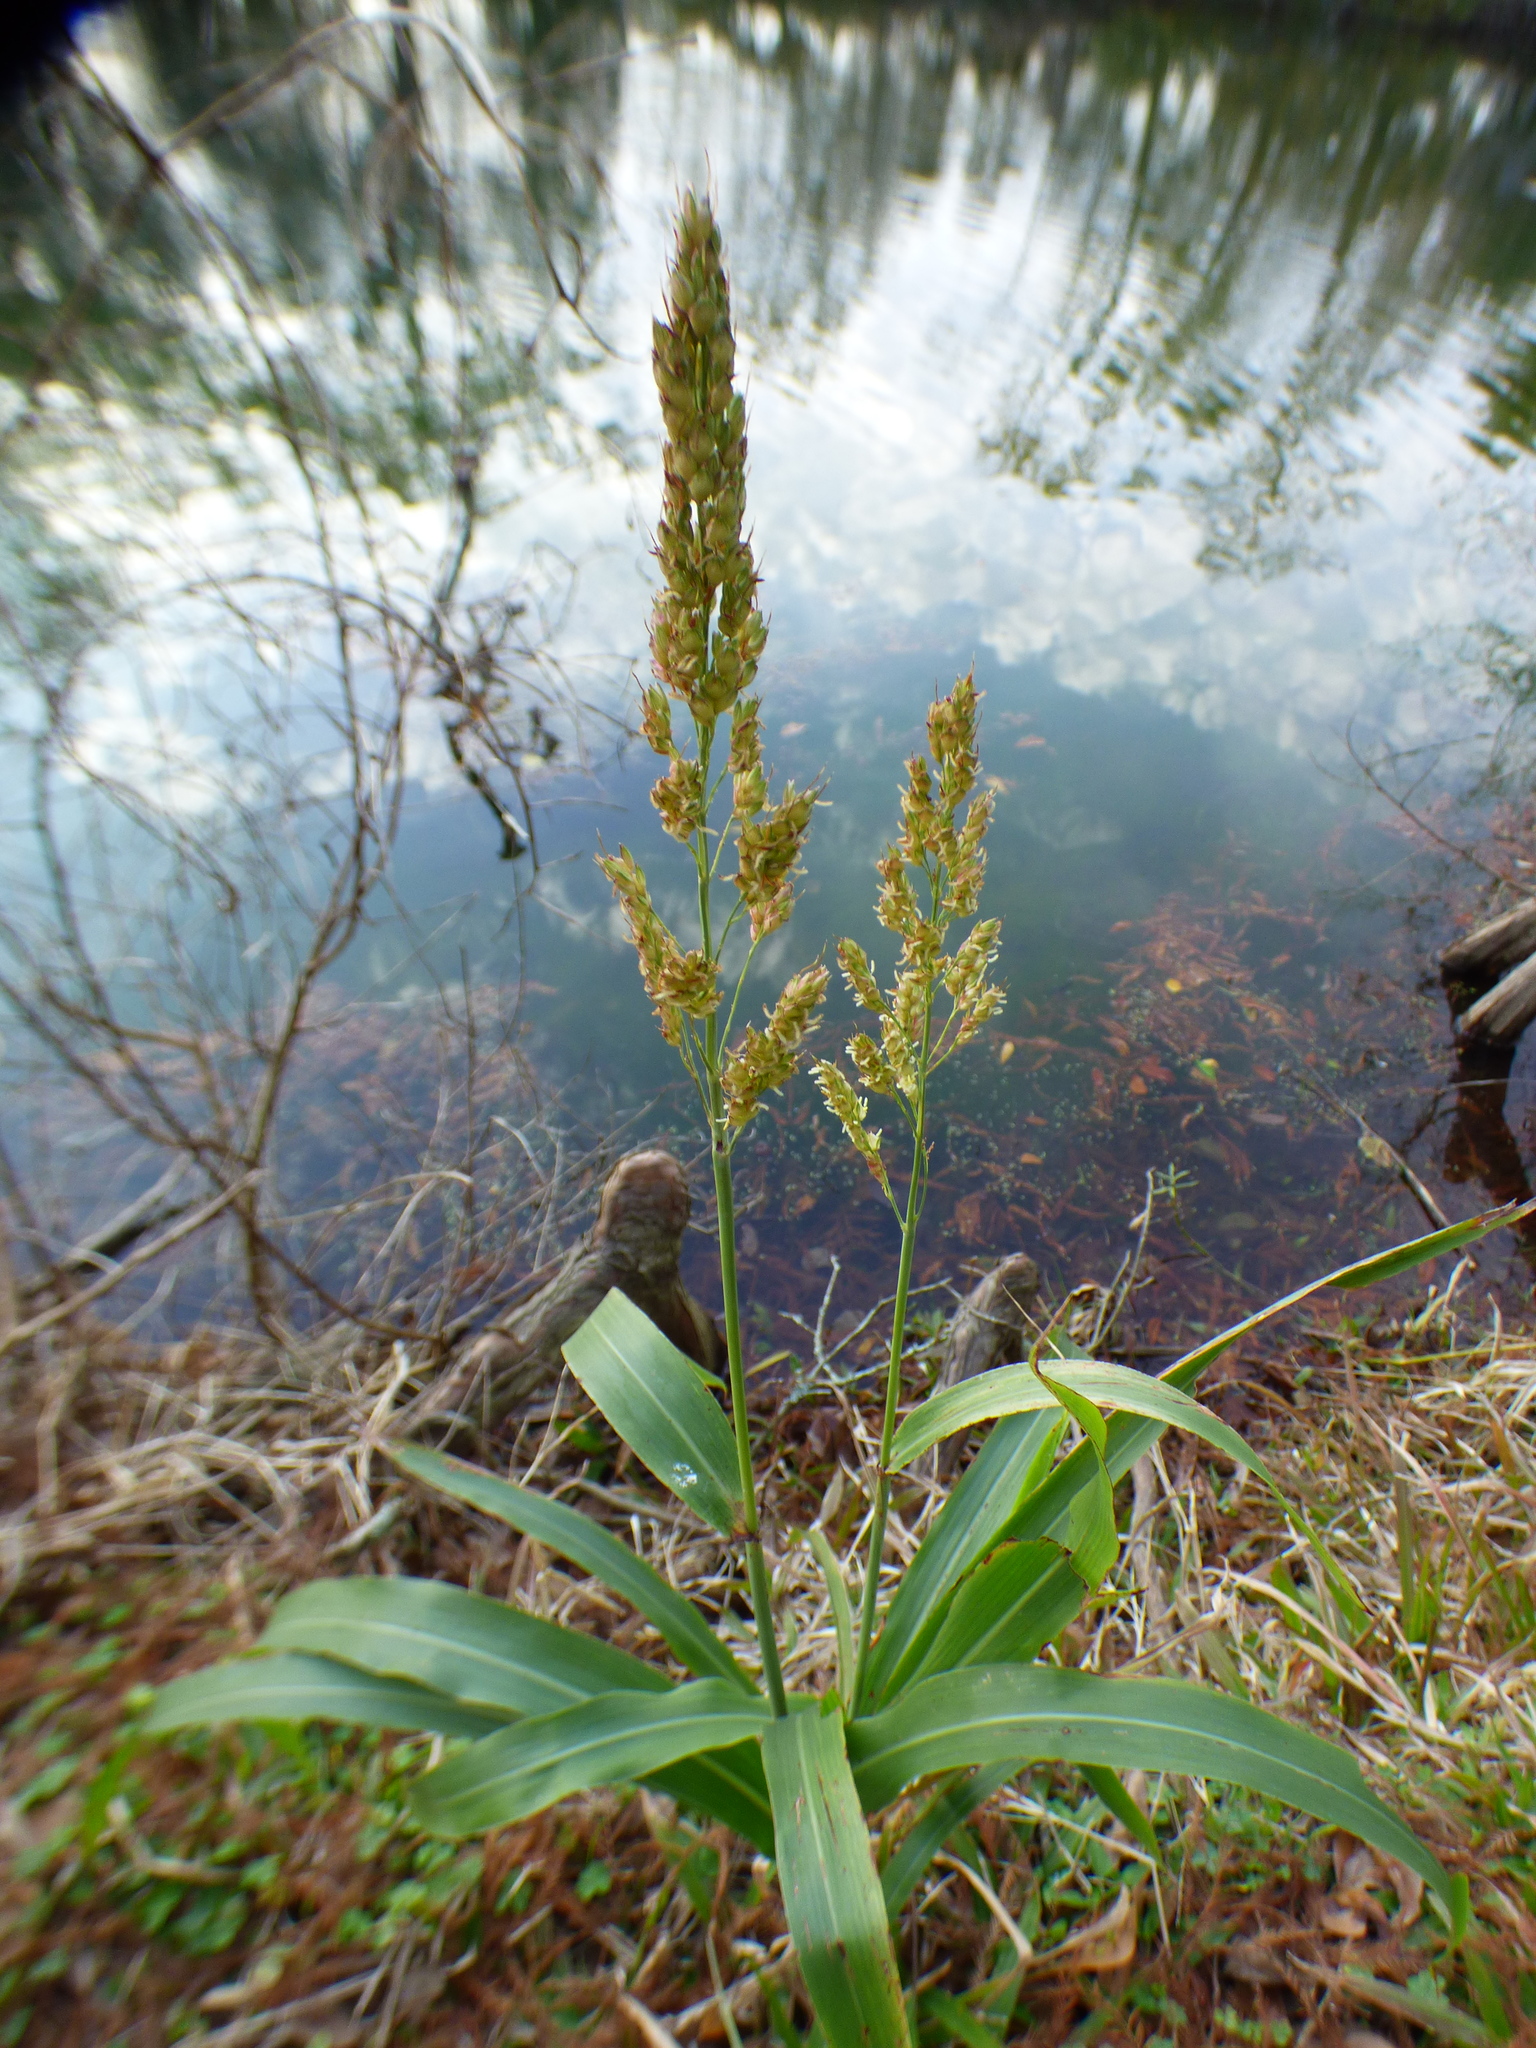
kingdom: Plantae
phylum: Tracheophyta
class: Liliopsida
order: Poales
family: Poaceae
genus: Sorghum
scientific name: Sorghum bicolor
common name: Sorghum
